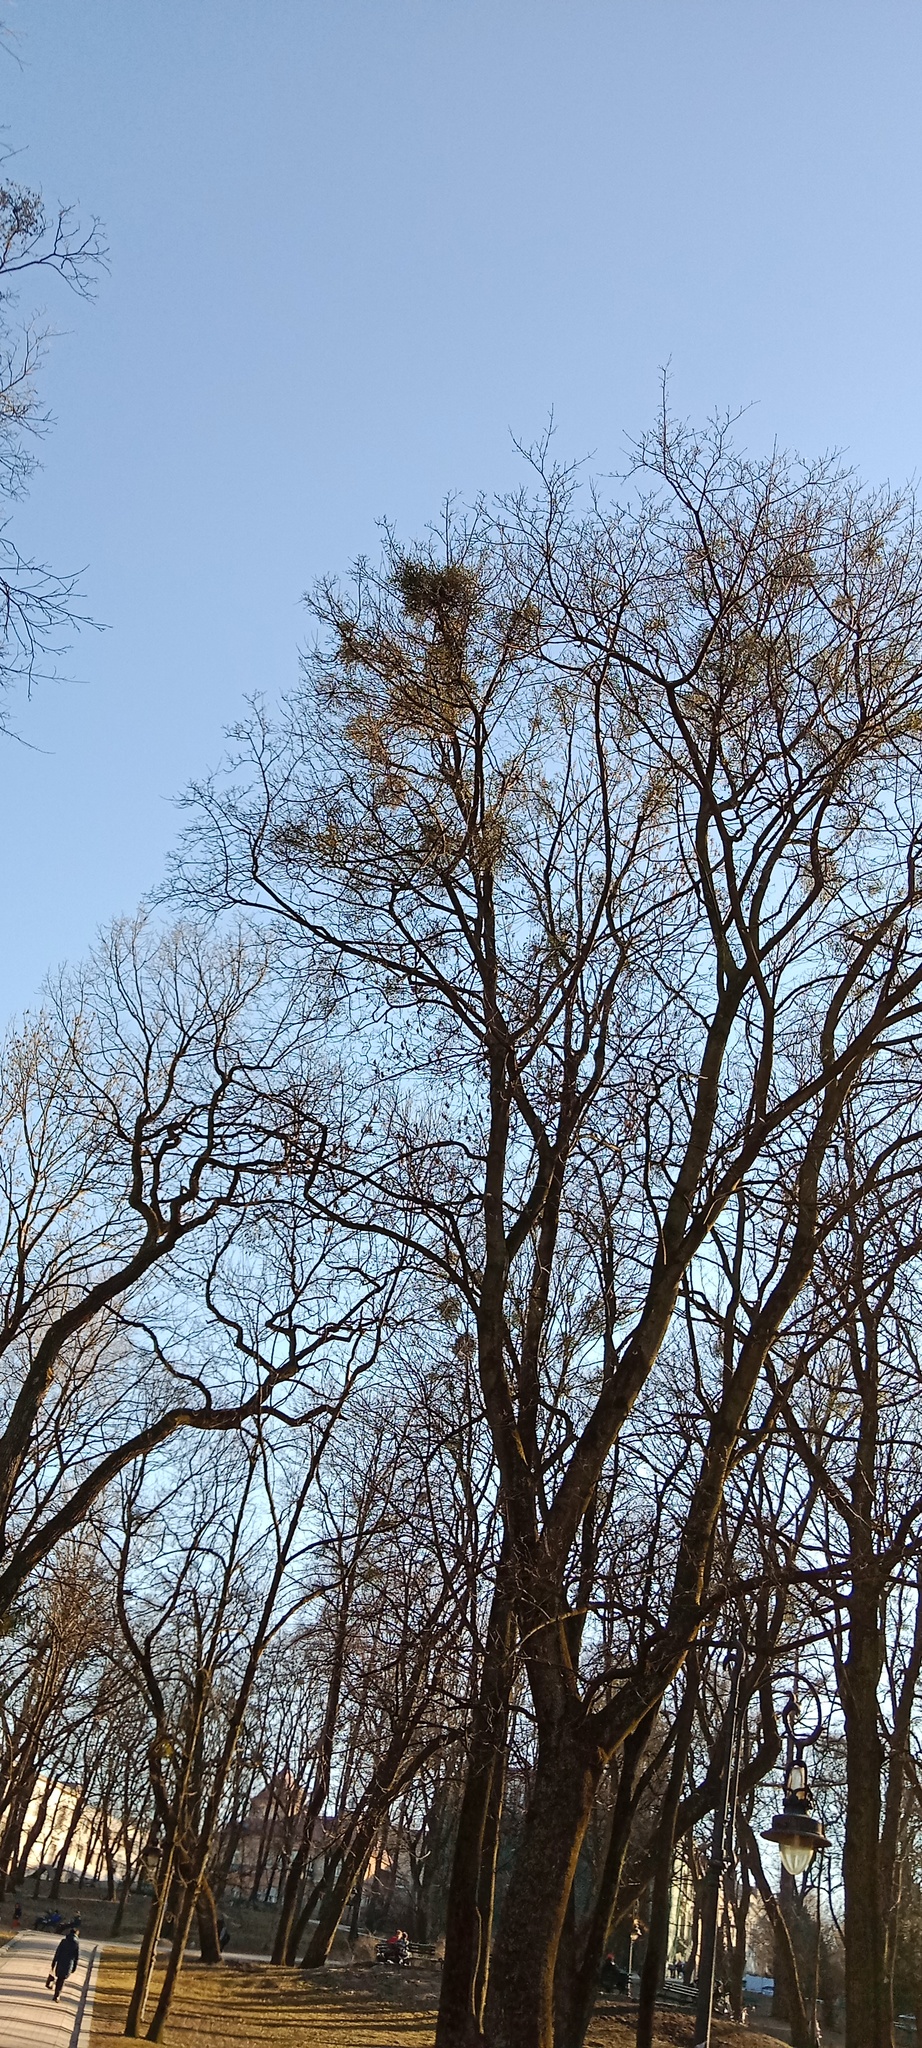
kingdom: Plantae
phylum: Tracheophyta
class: Magnoliopsida
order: Santalales
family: Viscaceae
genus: Viscum
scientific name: Viscum album
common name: Mistletoe
